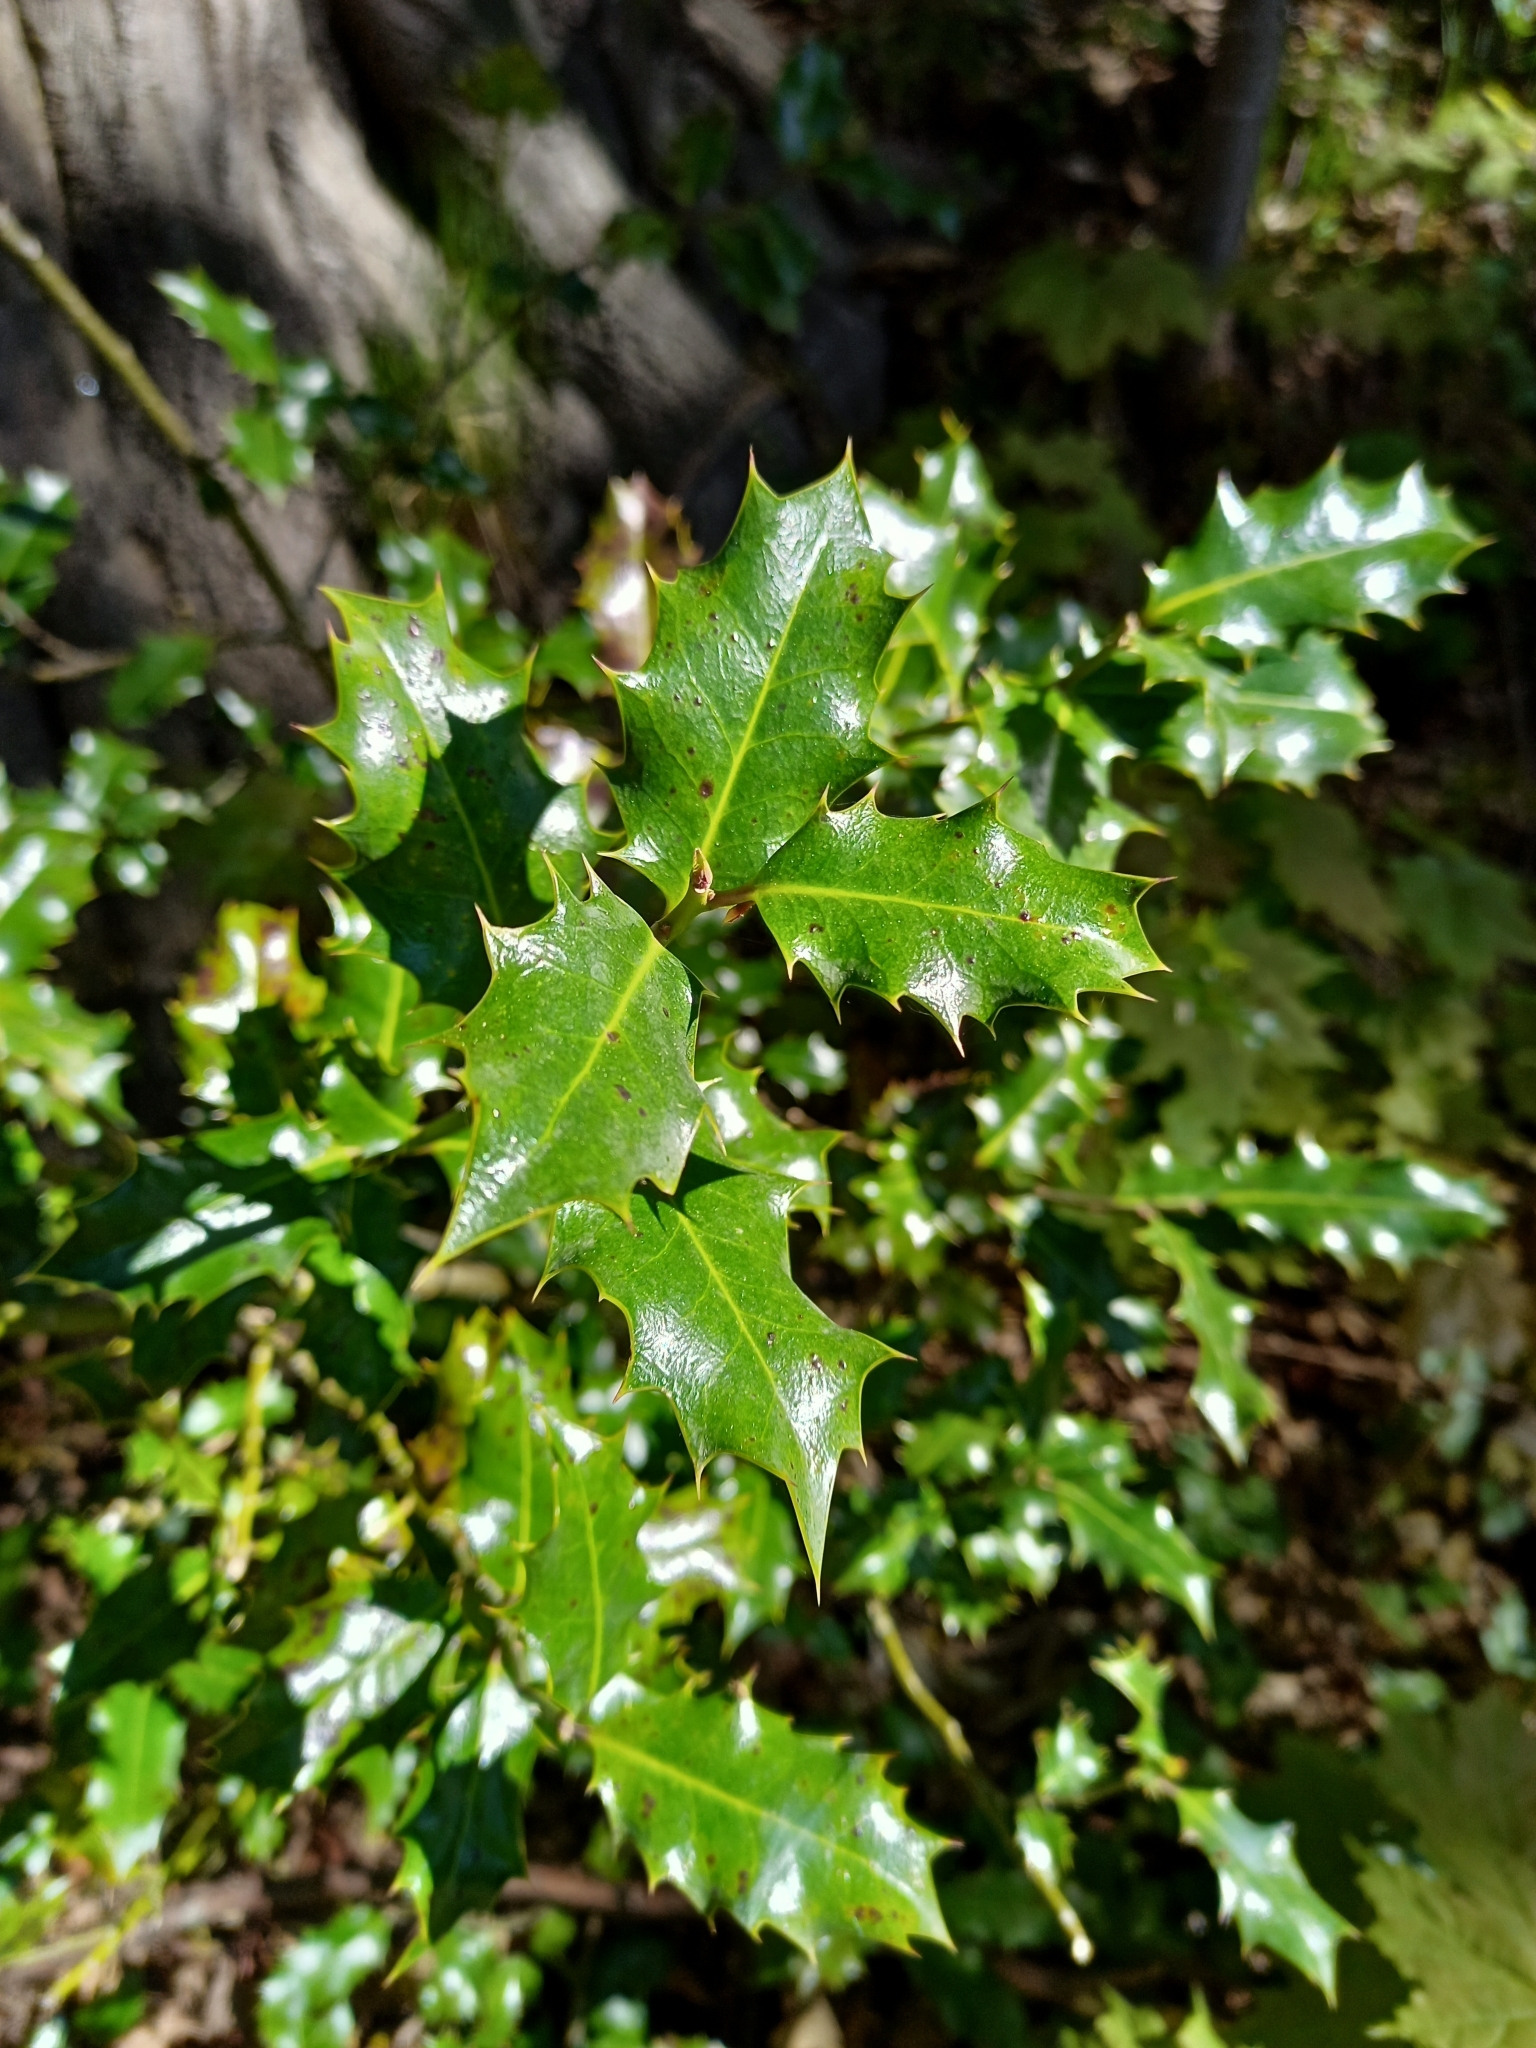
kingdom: Plantae
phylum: Tracheophyta
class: Magnoliopsida
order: Aquifoliales
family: Aquifoliaceae
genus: Ilex
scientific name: Ilex aquifolium
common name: English holly
